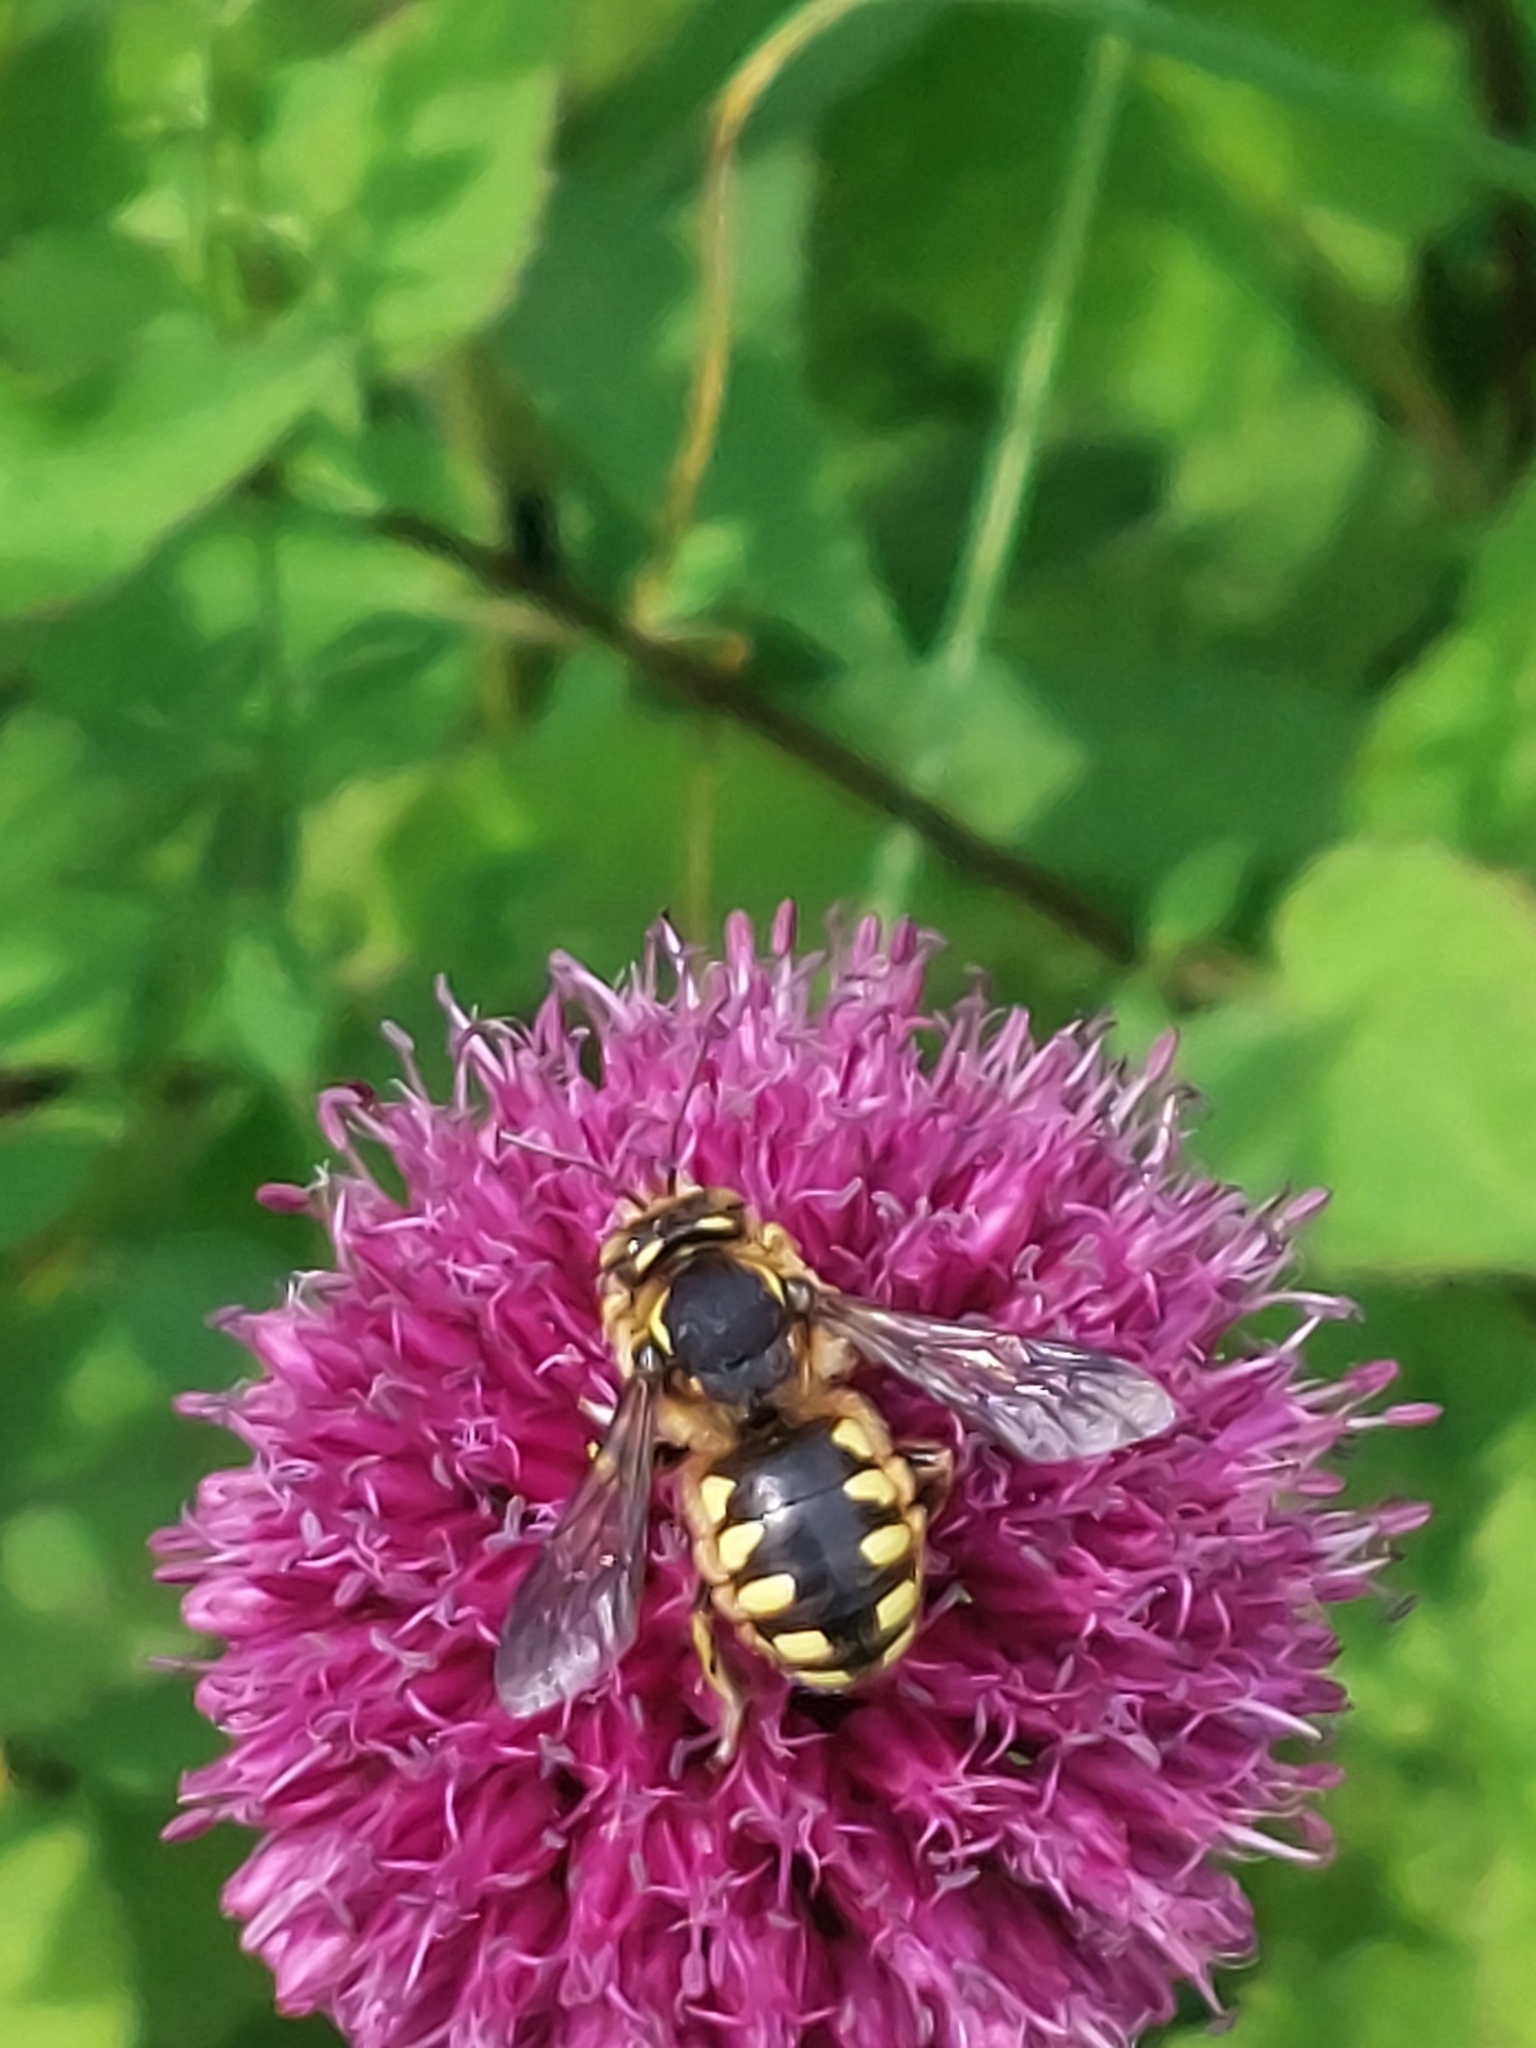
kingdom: Animalia
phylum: Arthropoda
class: Insecta
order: Hymenoptera
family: Megachilidae
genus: Anthidium
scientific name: Anthidium florentinum
